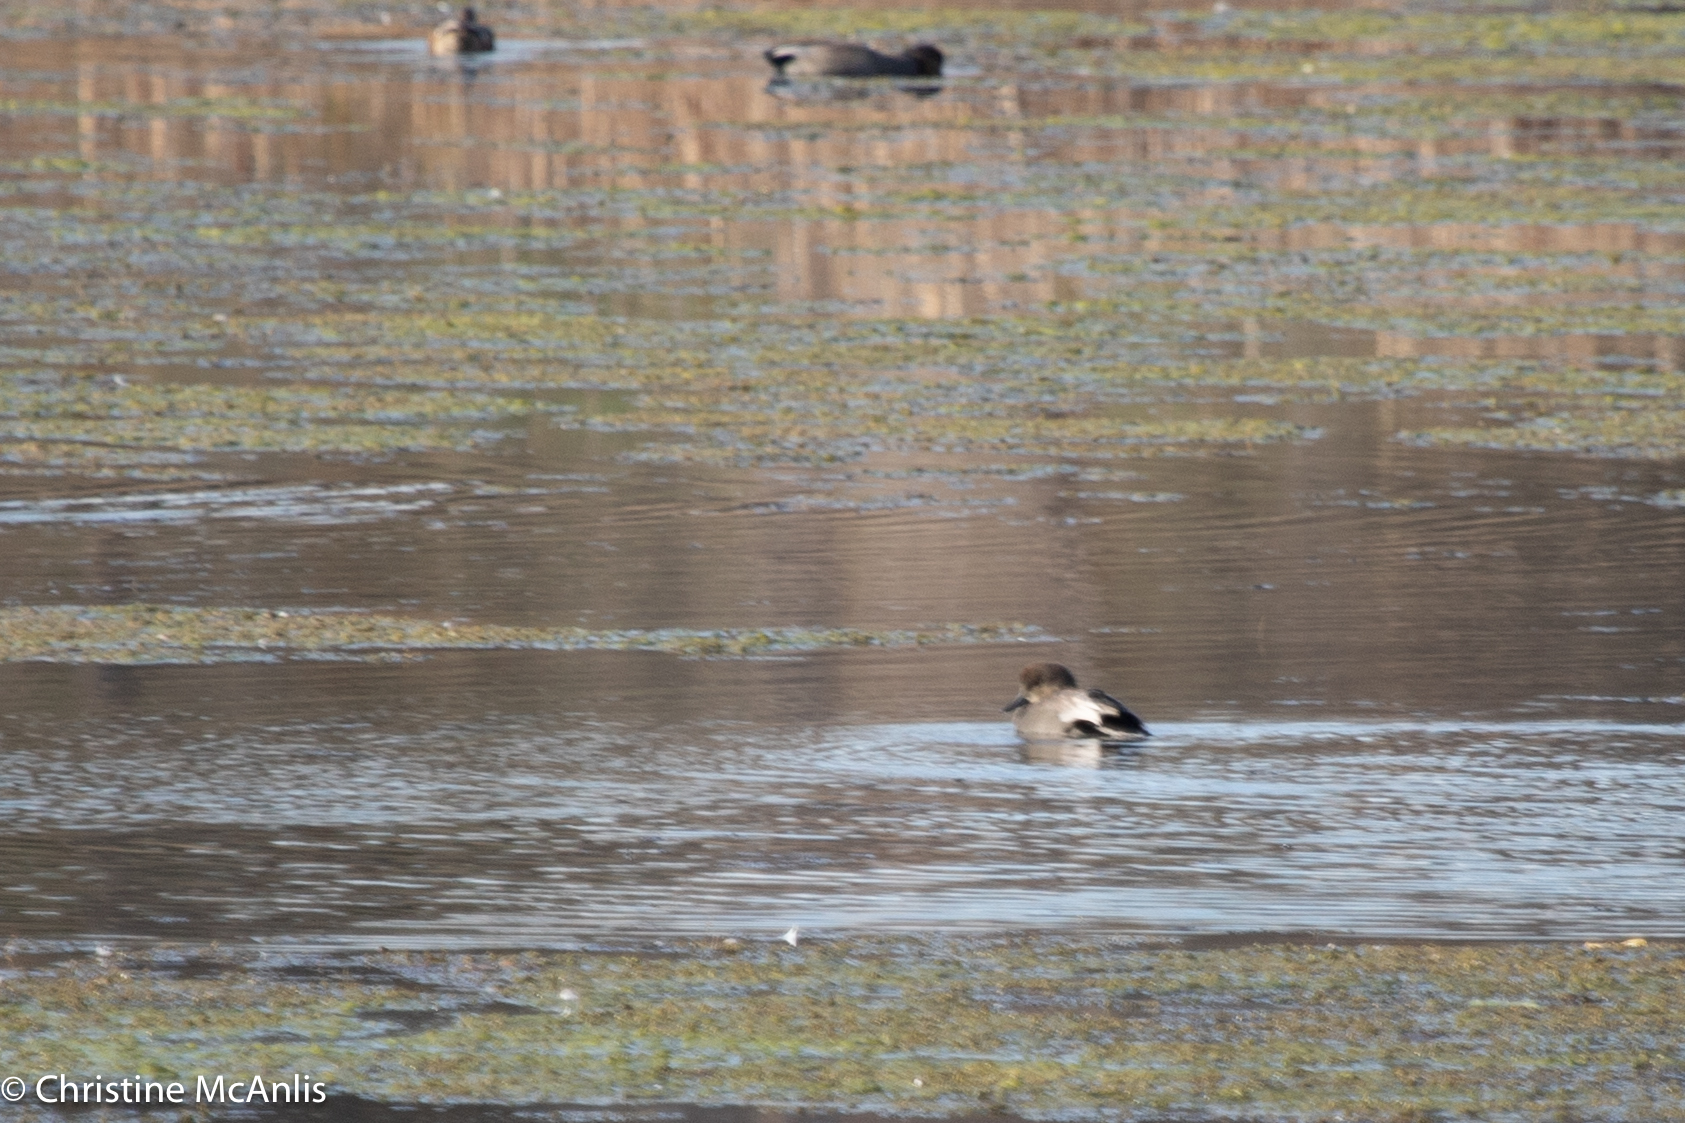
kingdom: Animalia
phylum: Chordata
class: Aves
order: Anseriformes
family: Anatidae
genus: Mareca
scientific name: Mareca strepera
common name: Gadwall
